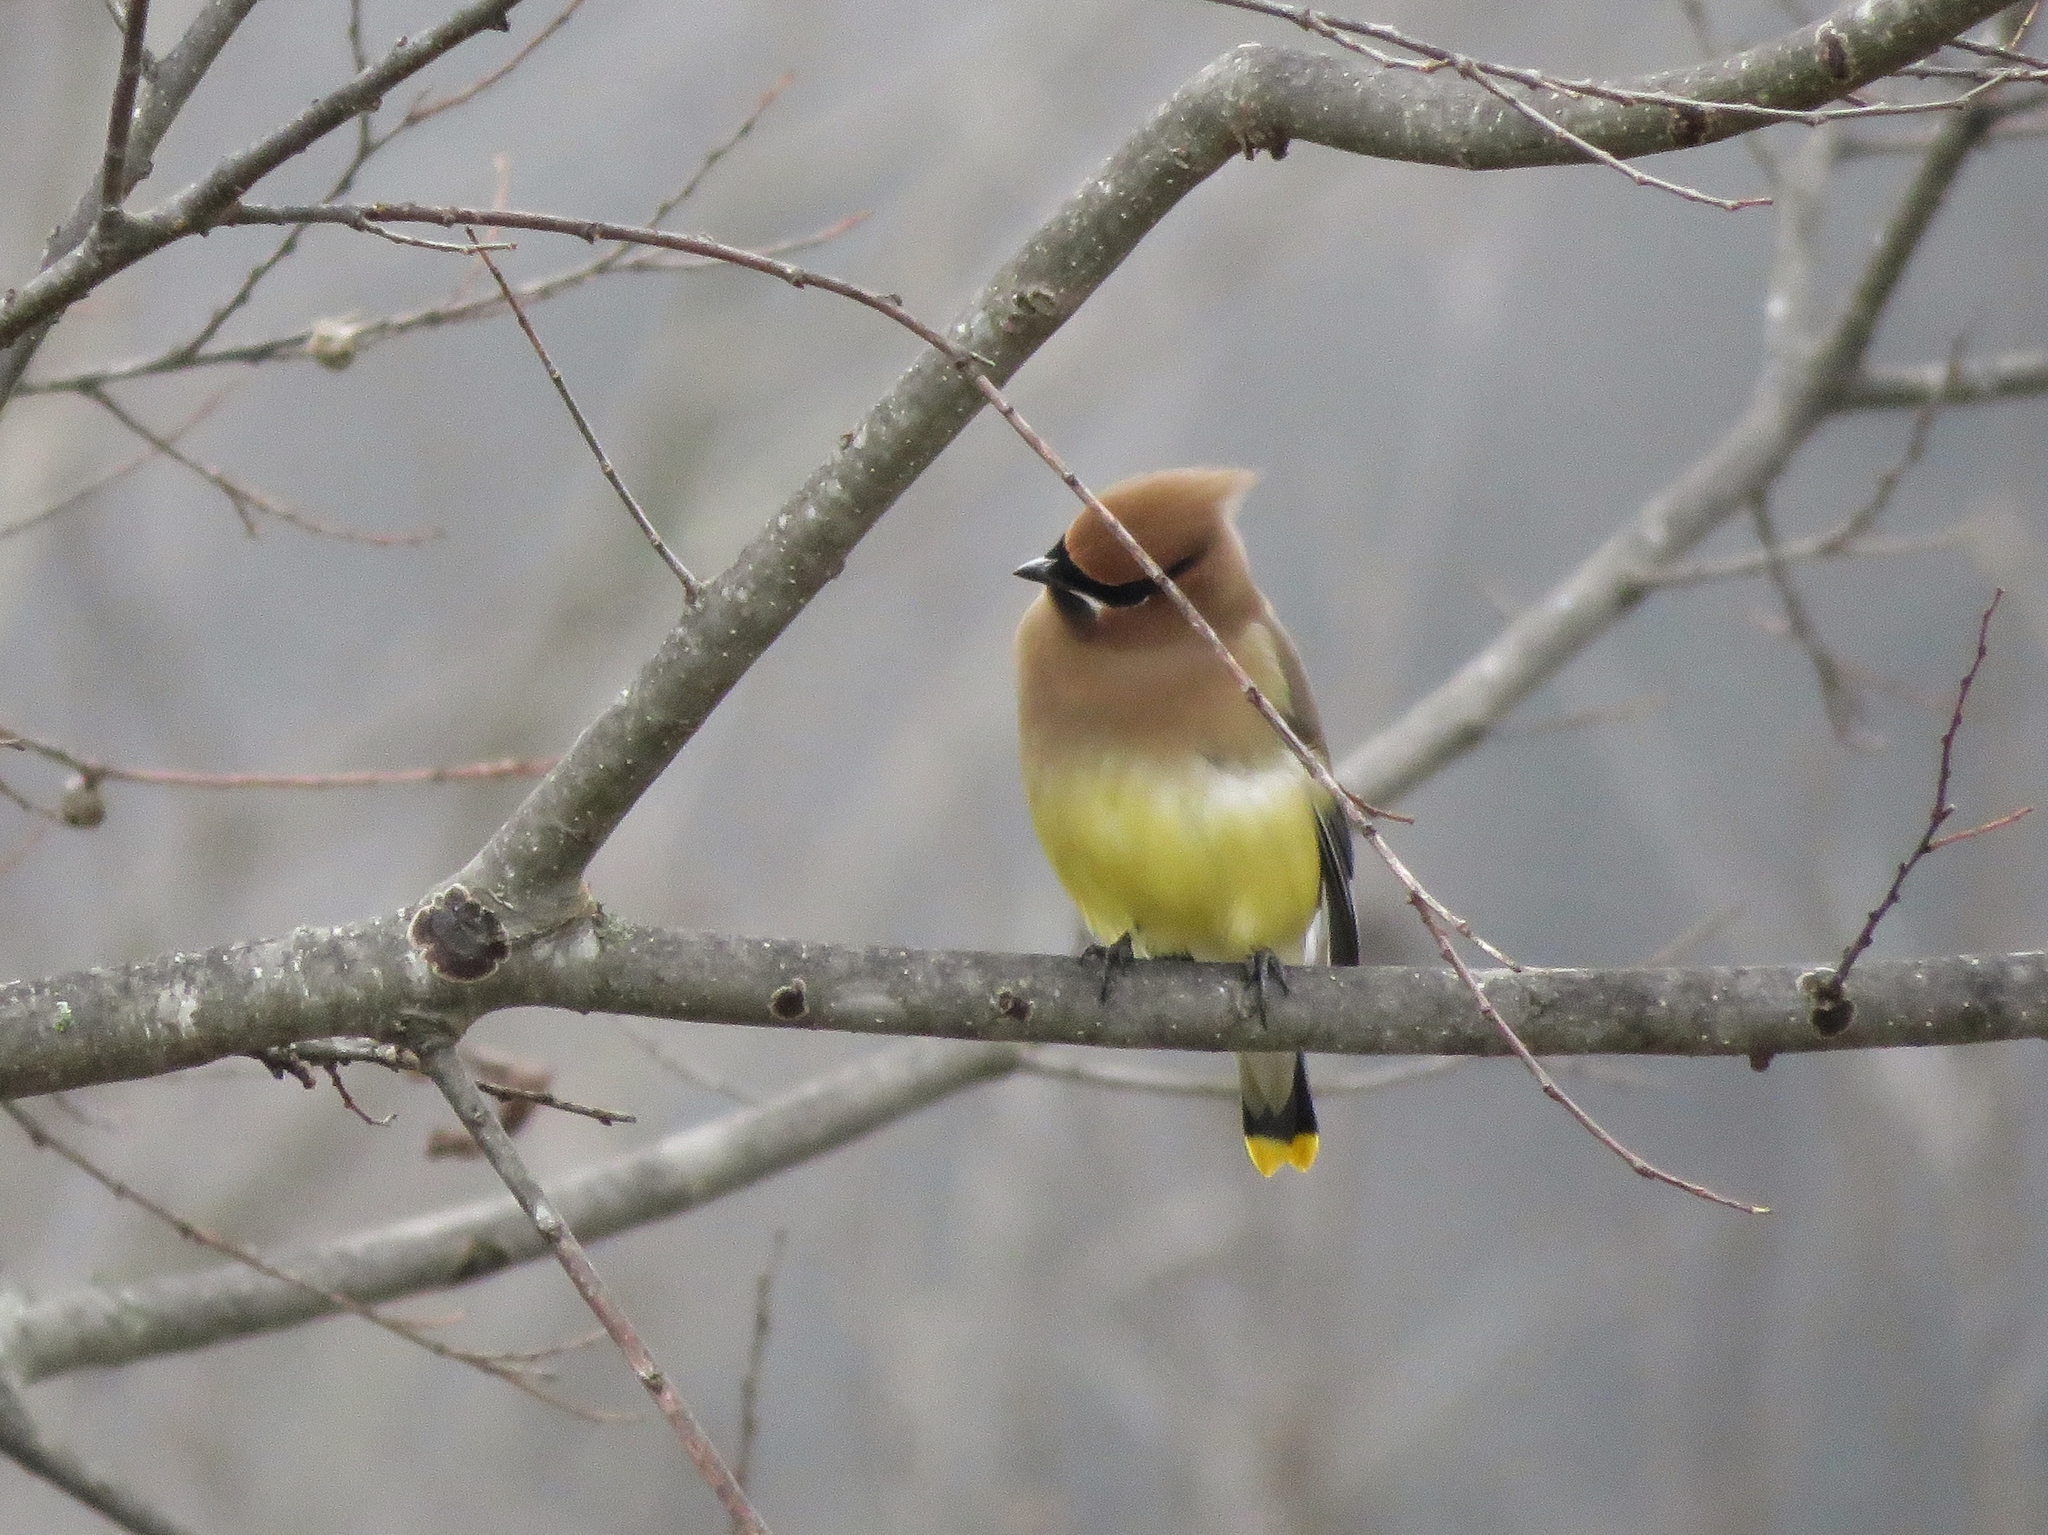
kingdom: Animalia
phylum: Chordata
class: Aves
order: Passeriformes
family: Bombycillidae
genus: Bombycilla
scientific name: Bombycilla cedrorum
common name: Cedar waxwing
